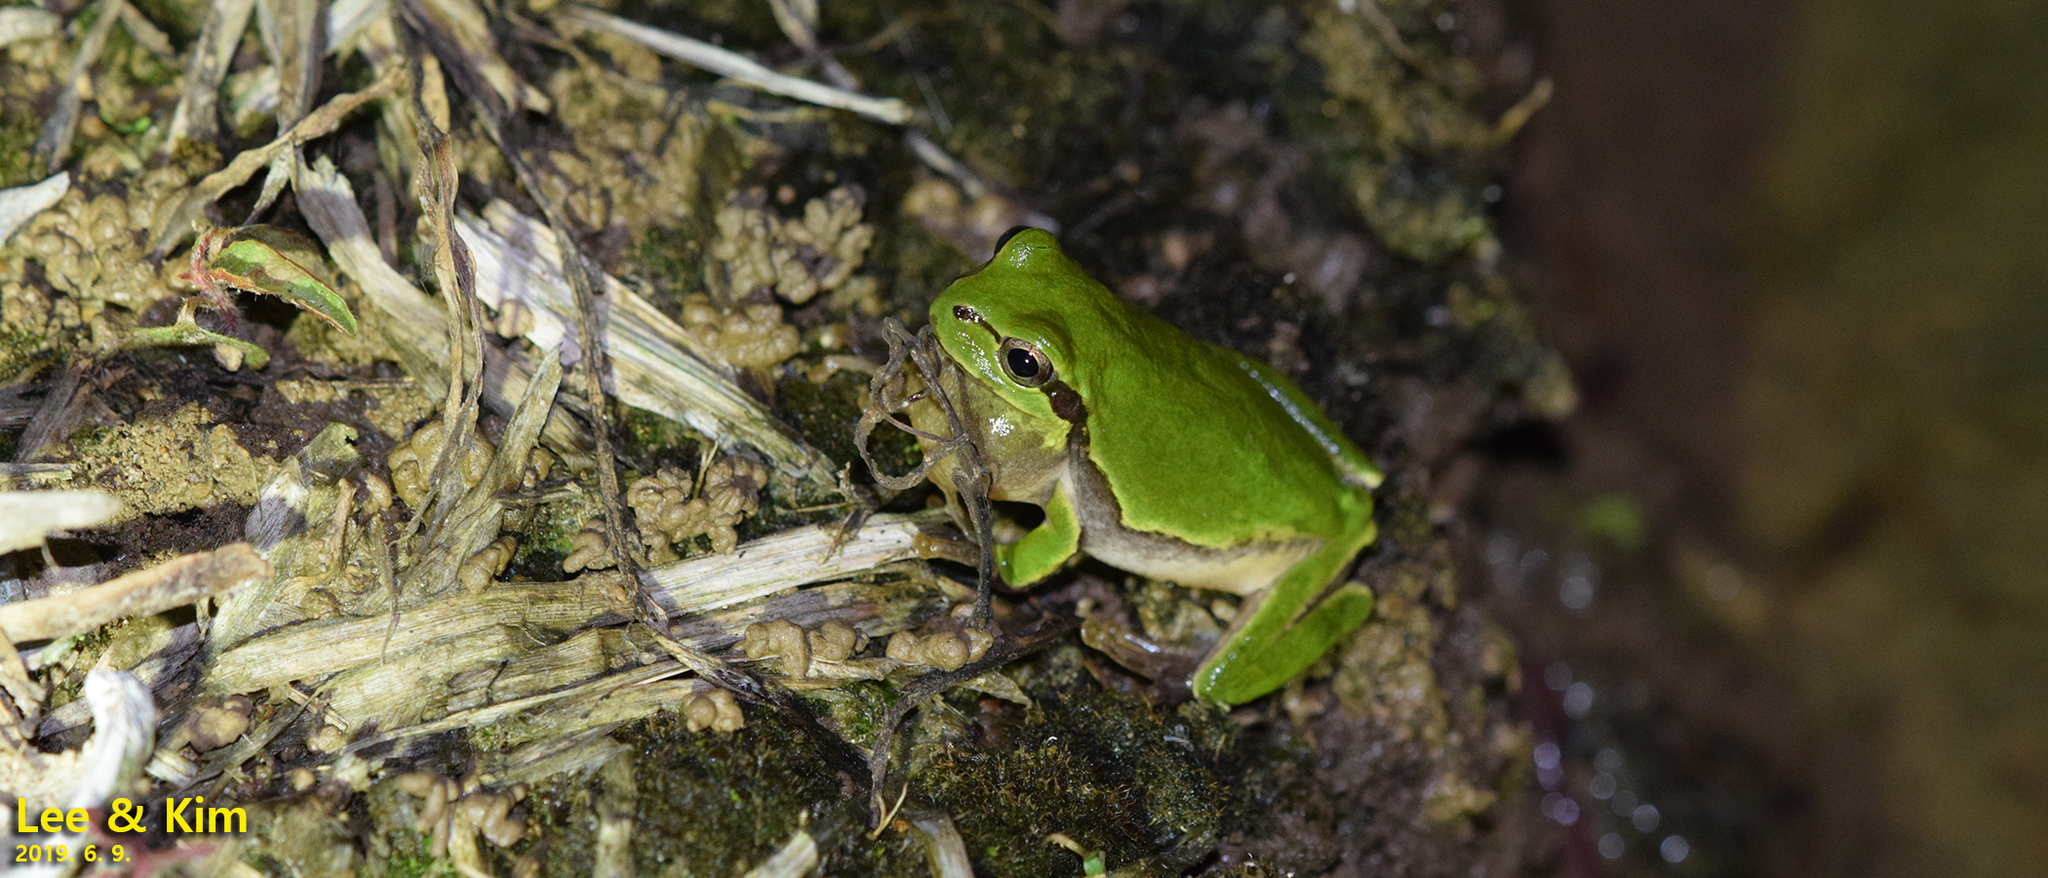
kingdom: Animalia
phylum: Chordata
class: Amphibia
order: Anura
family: Hylidae
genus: Dryophytes
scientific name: Dryophytes japonicus
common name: Japanese treefrog
